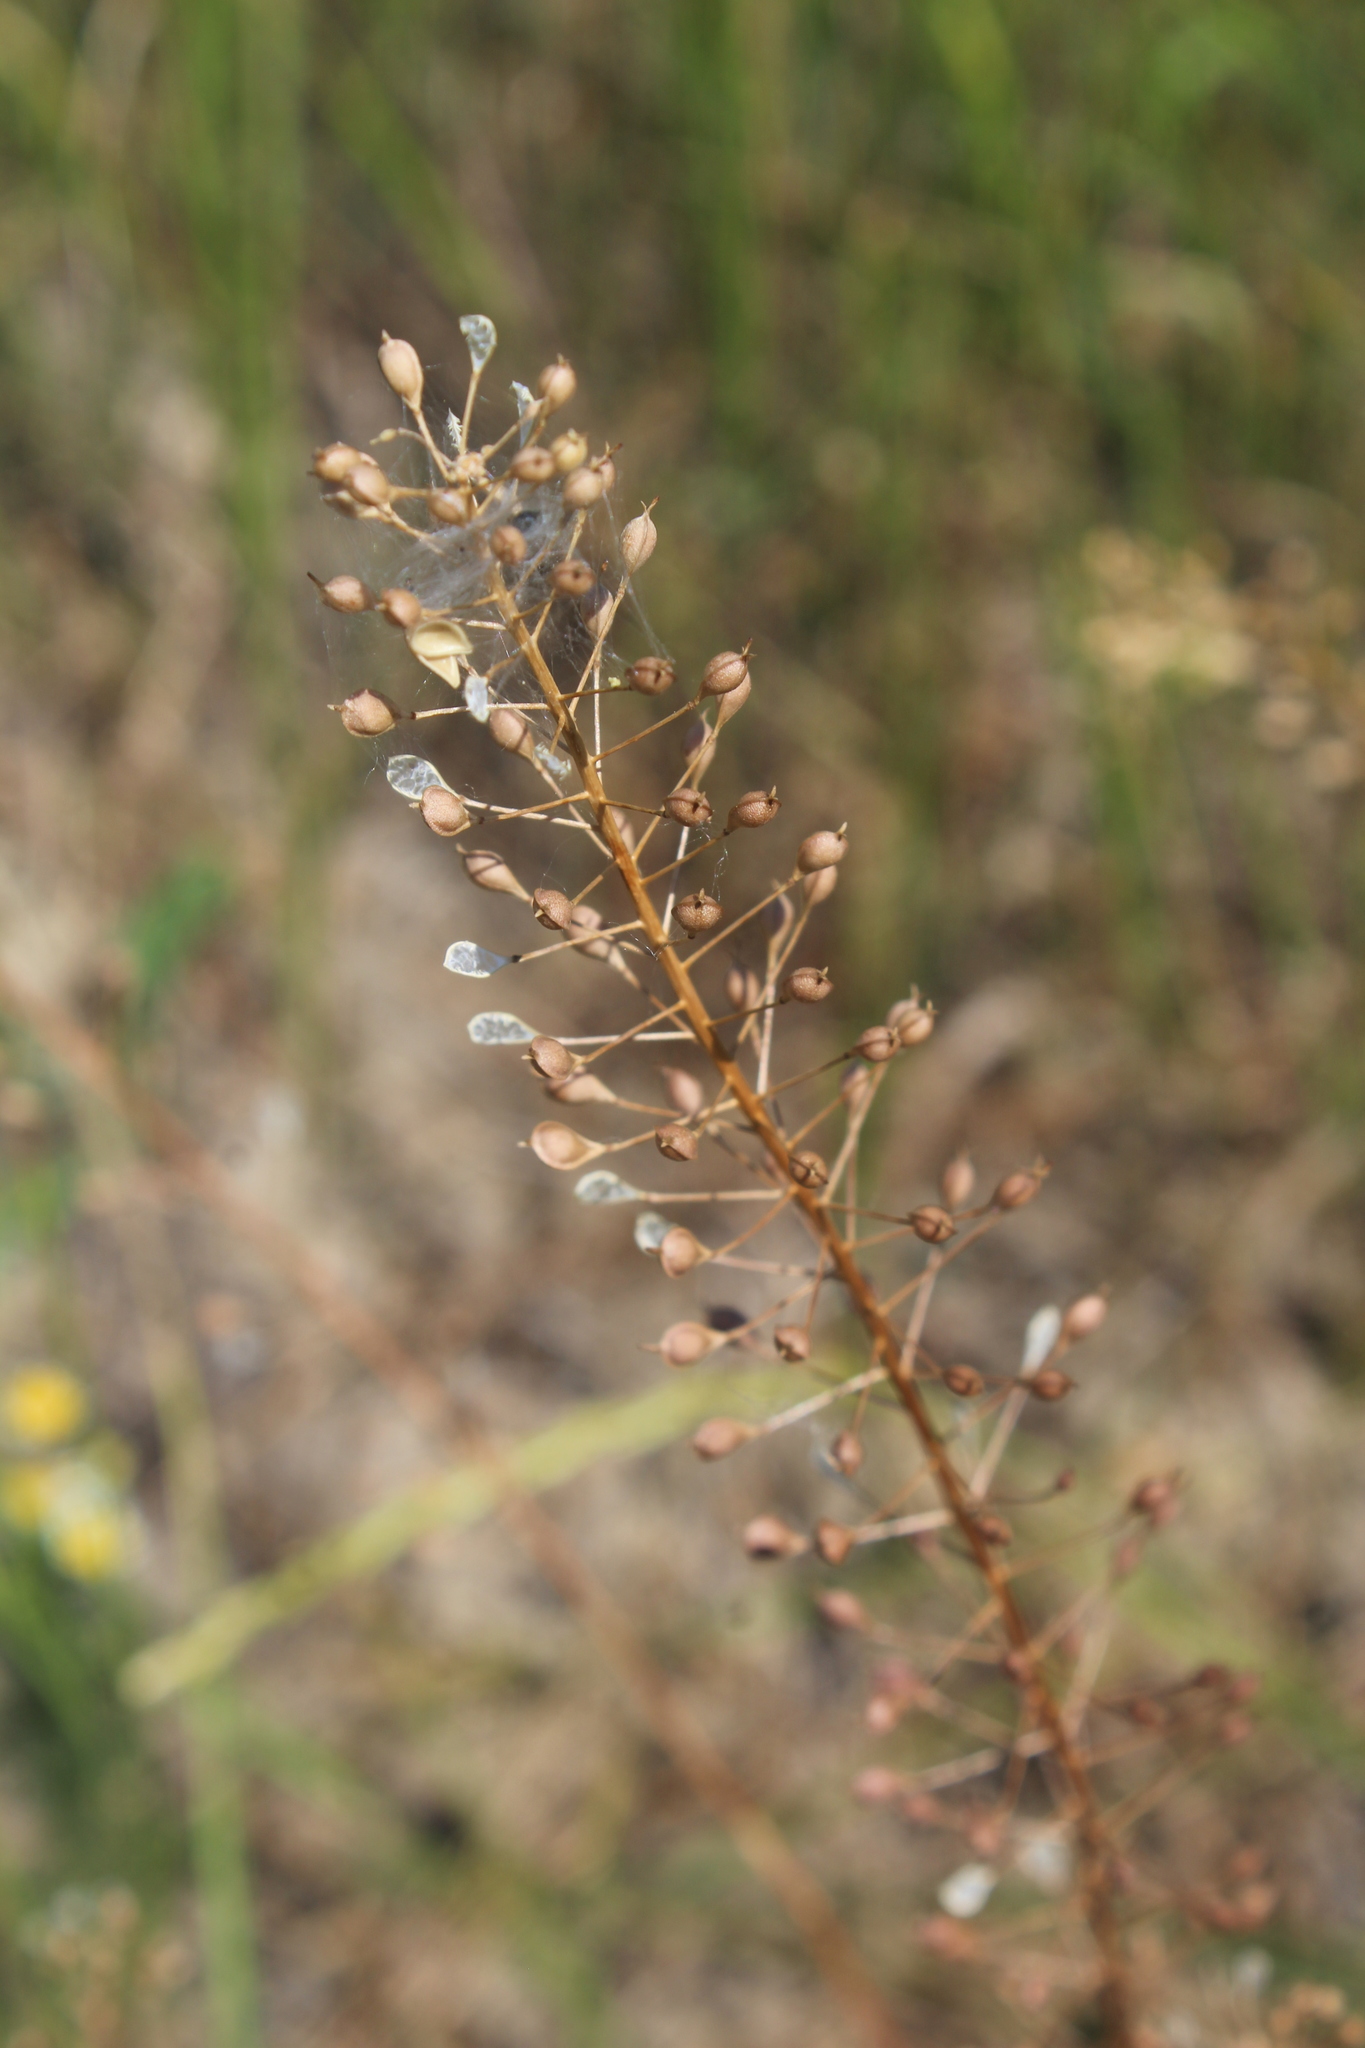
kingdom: Plantae
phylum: Tracheophyta
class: Magnoliopsida
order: Brassicales
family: Brassicaceae
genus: Camelina
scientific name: Camelina microcarpa
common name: Lesser gold-of-pleasure
